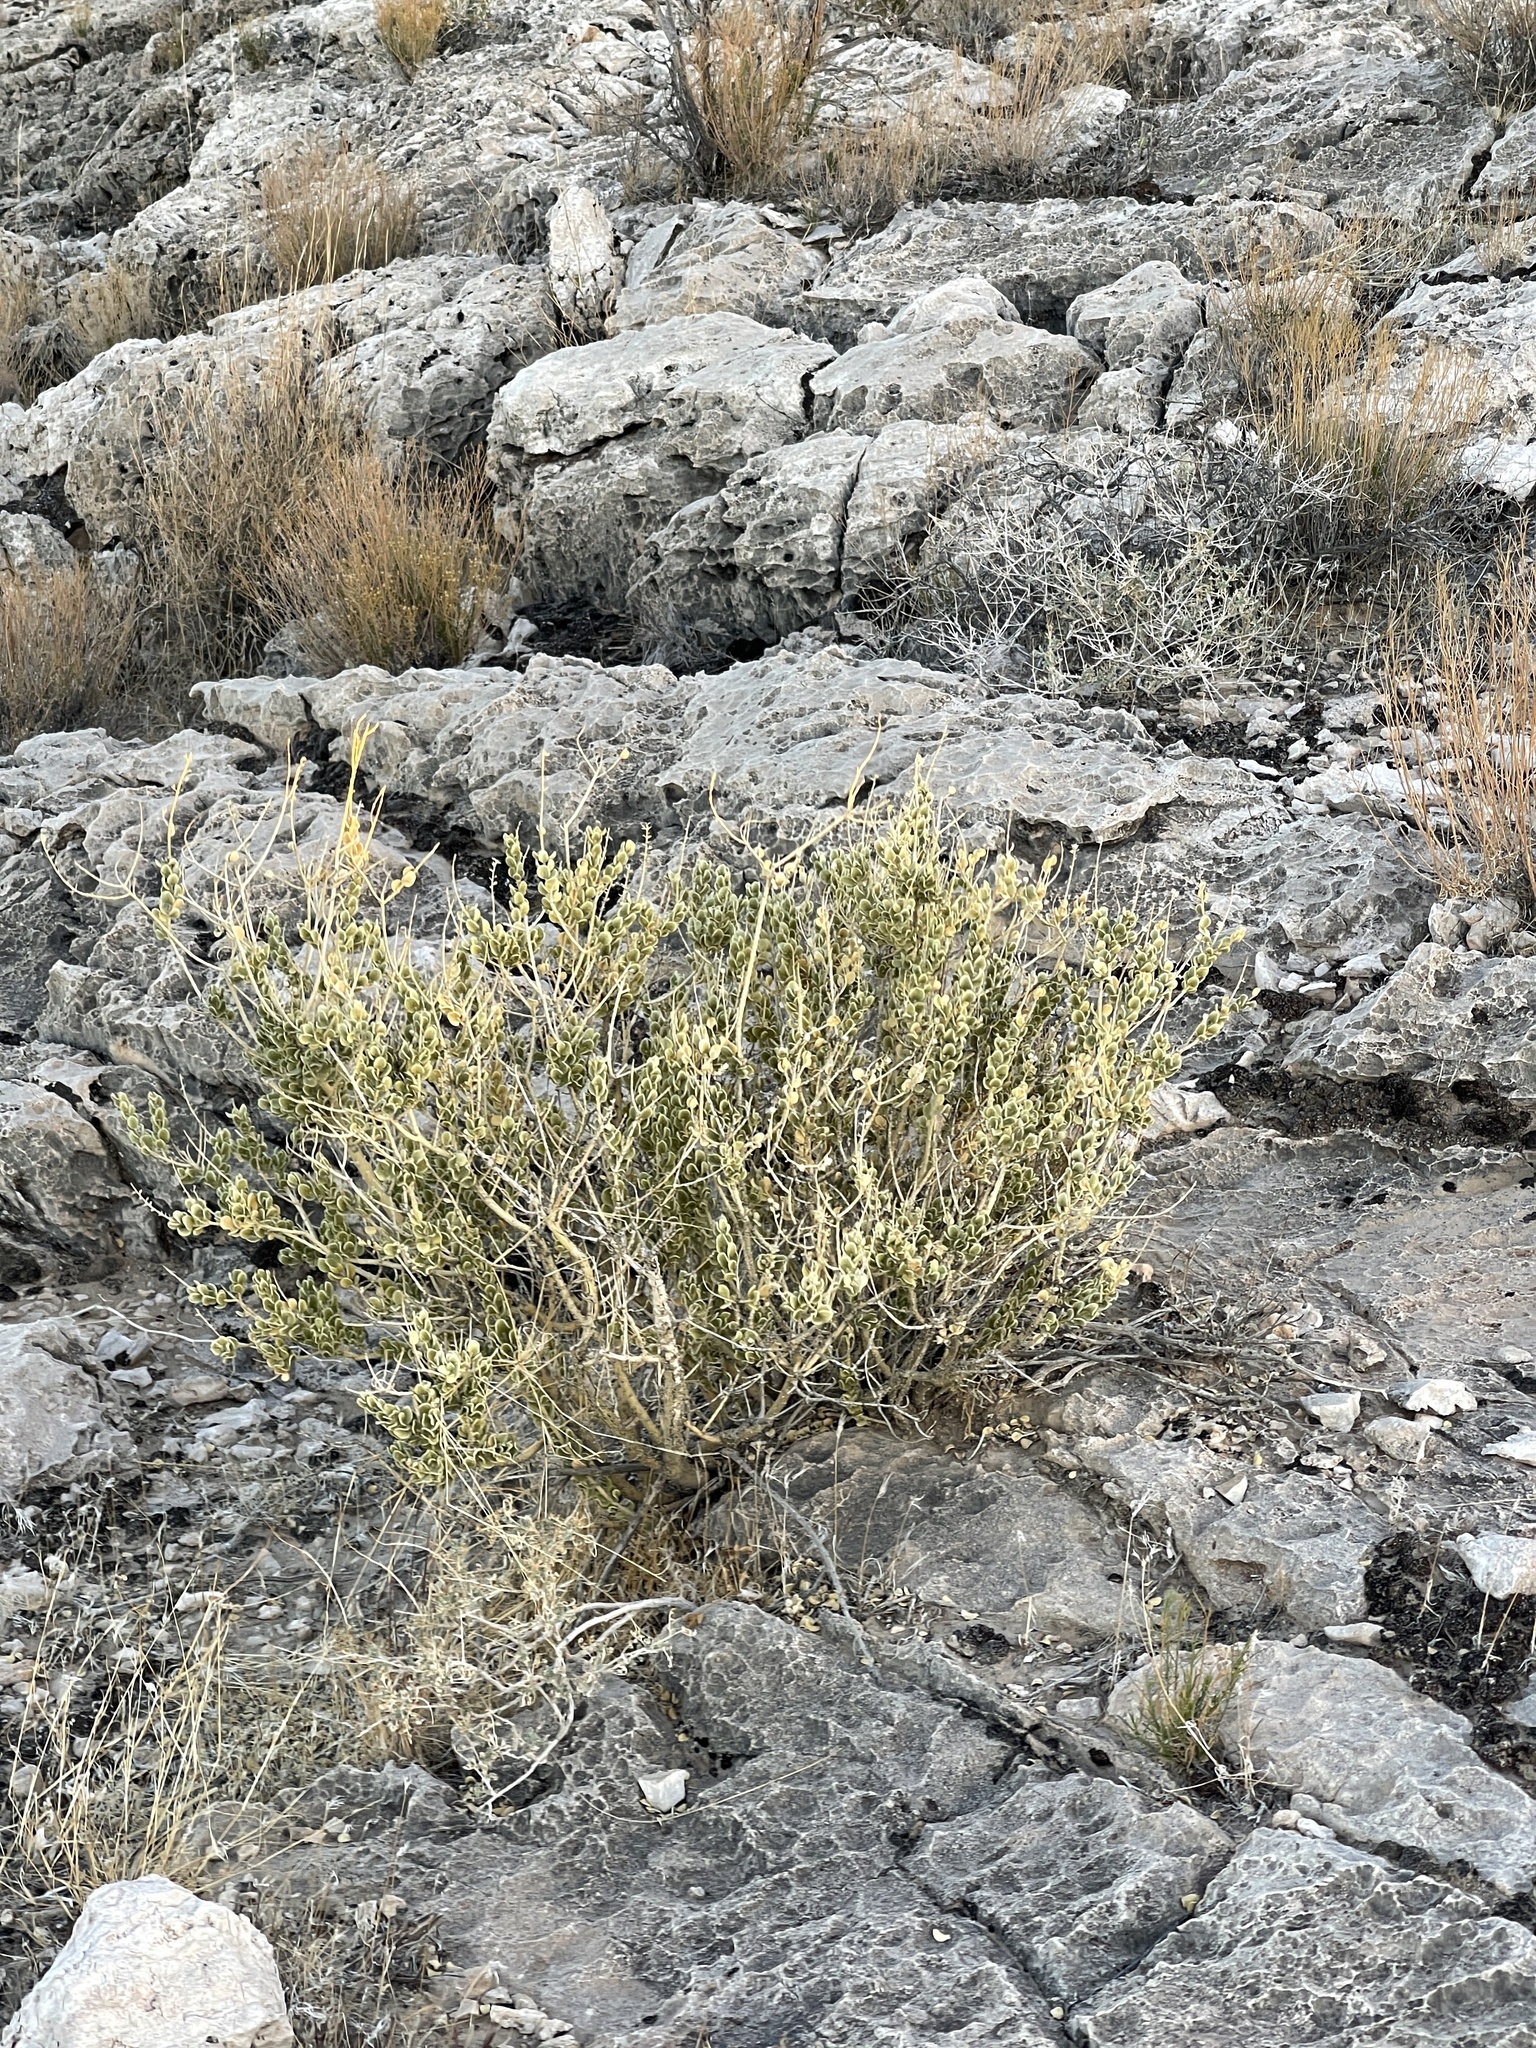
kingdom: Plantae
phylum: Tracheophyta
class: Magnoliopsida
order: Celastrales
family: Celastraceae
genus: Mortonia
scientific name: Mortonia utahensis
